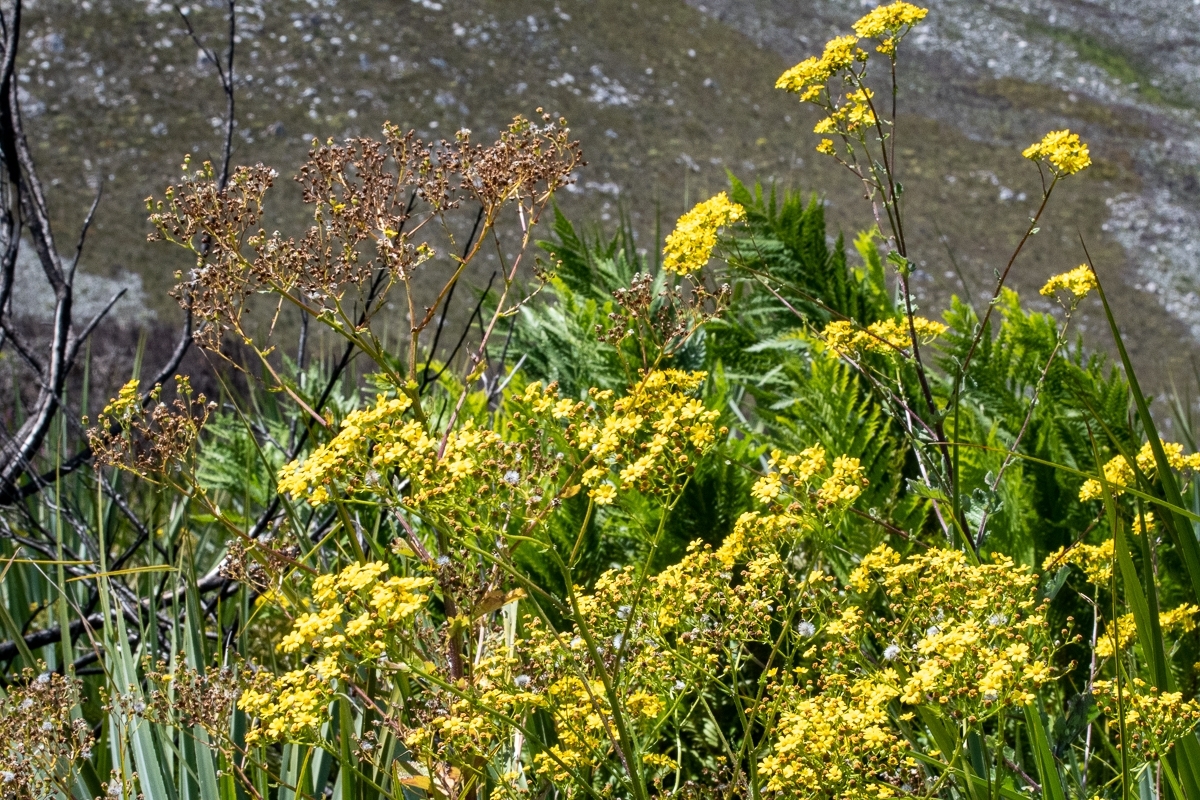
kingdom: Plantae
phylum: Tracheophyta
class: Magnoliopsida
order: Asterales
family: Asteraceae
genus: Senecio
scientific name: Senecio rigidus
